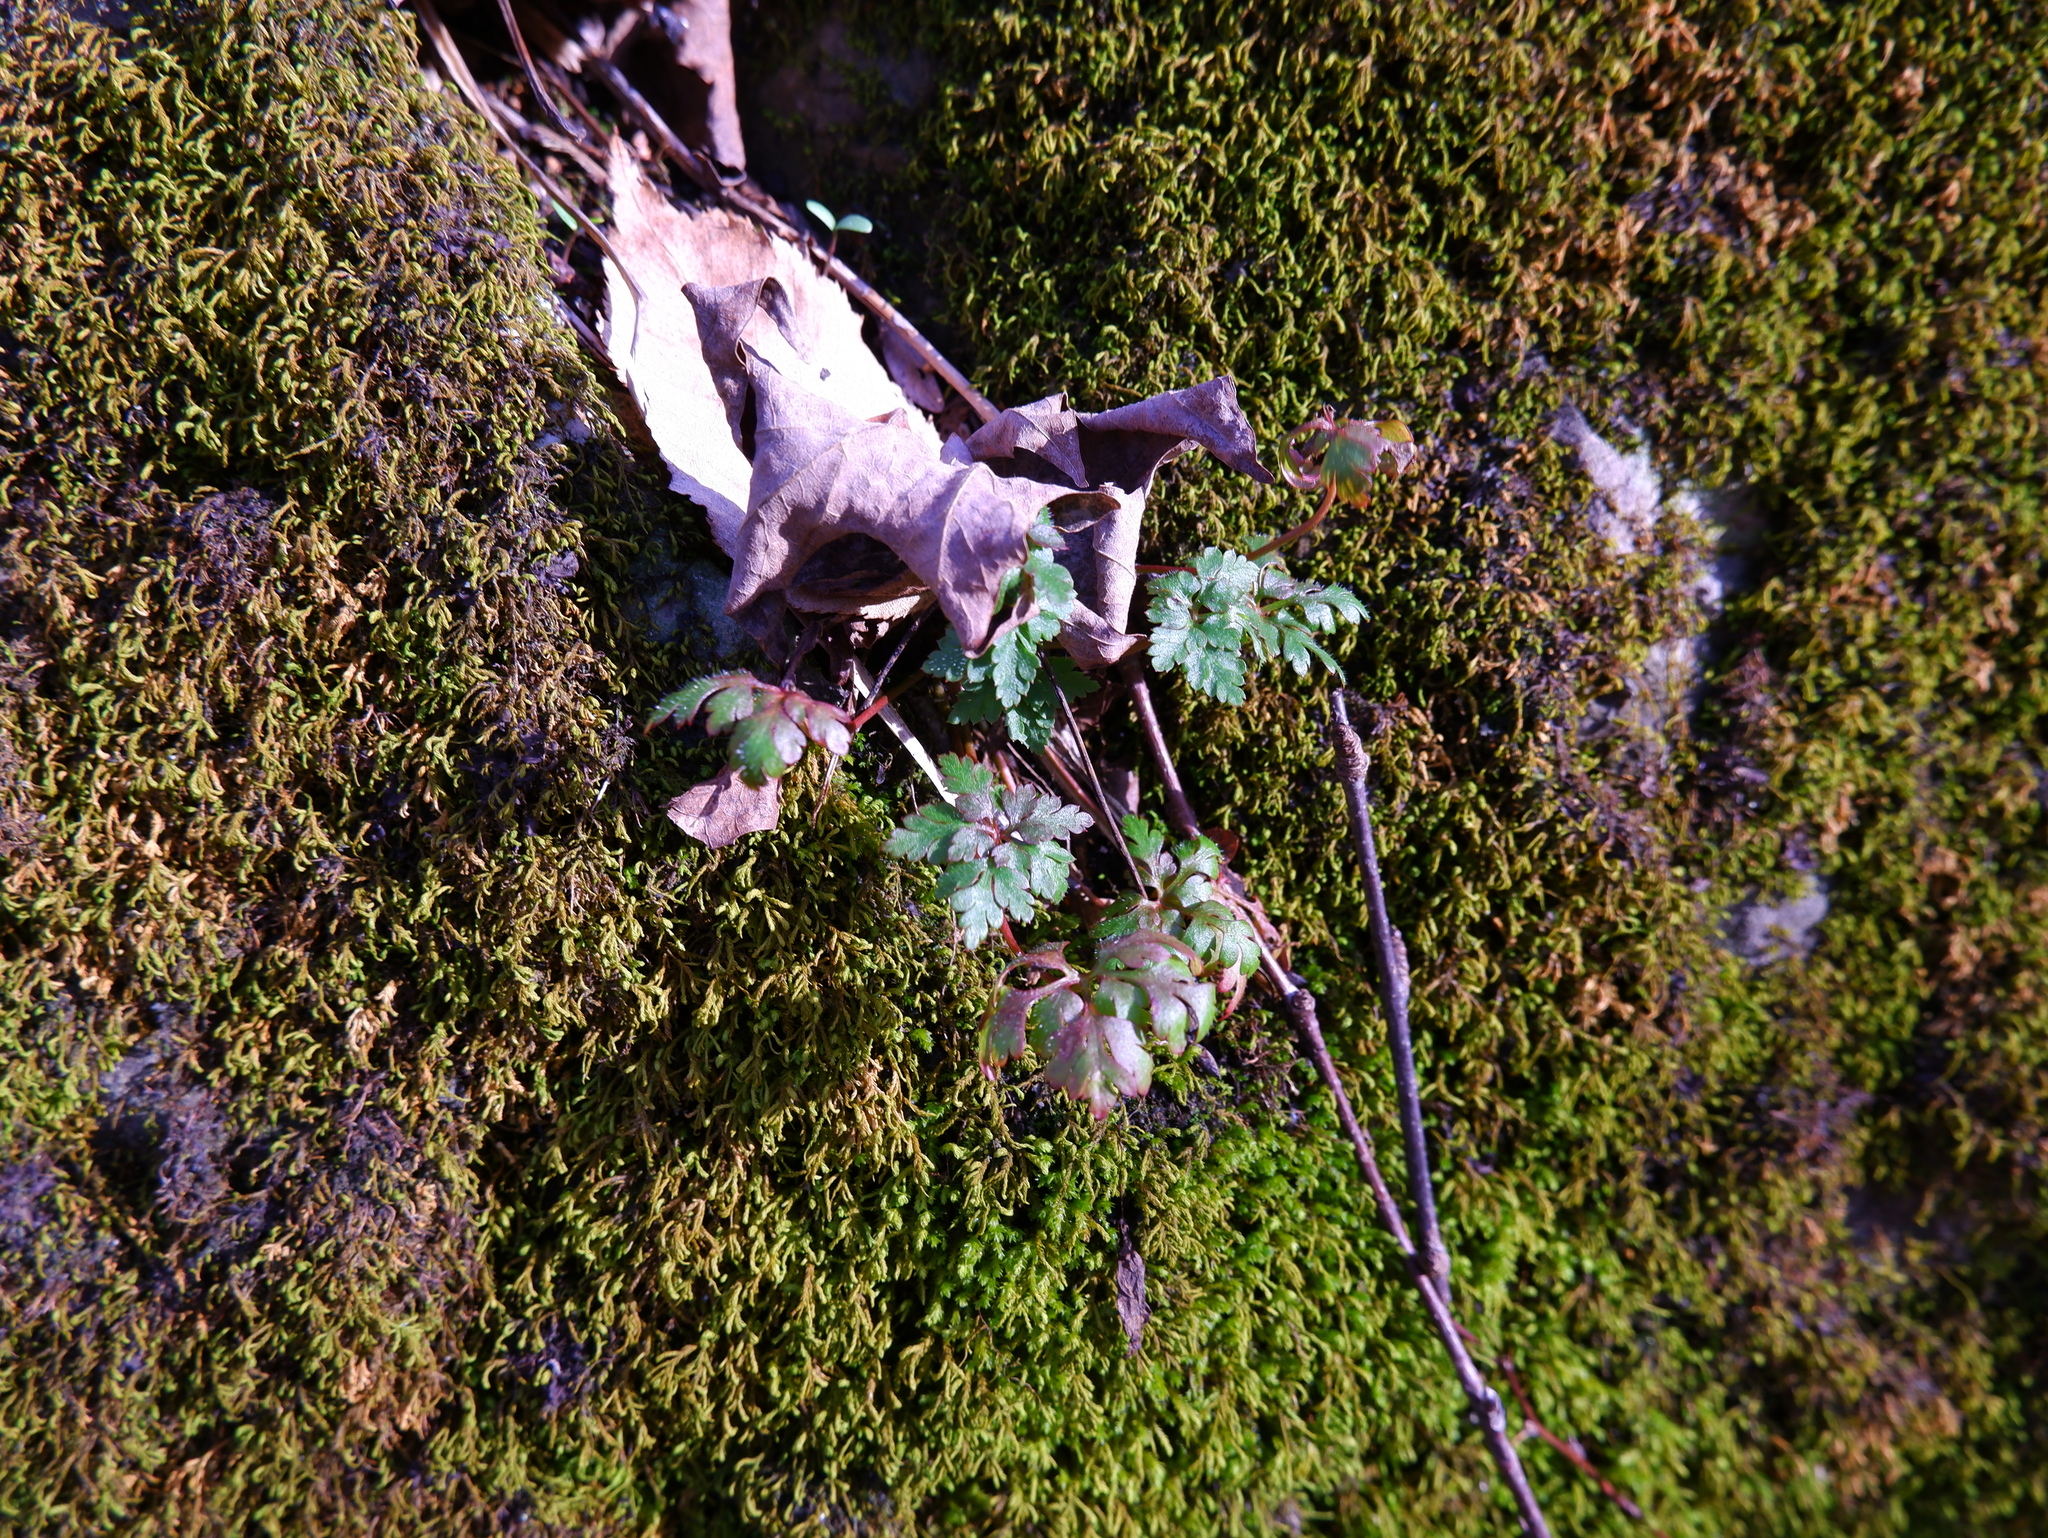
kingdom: Plantae
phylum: Tracheophyta
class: Magnoliopsida
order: Geraniales
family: Geraniaceae
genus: Geranium
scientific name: Geranium robertianum
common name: Herb-robert
